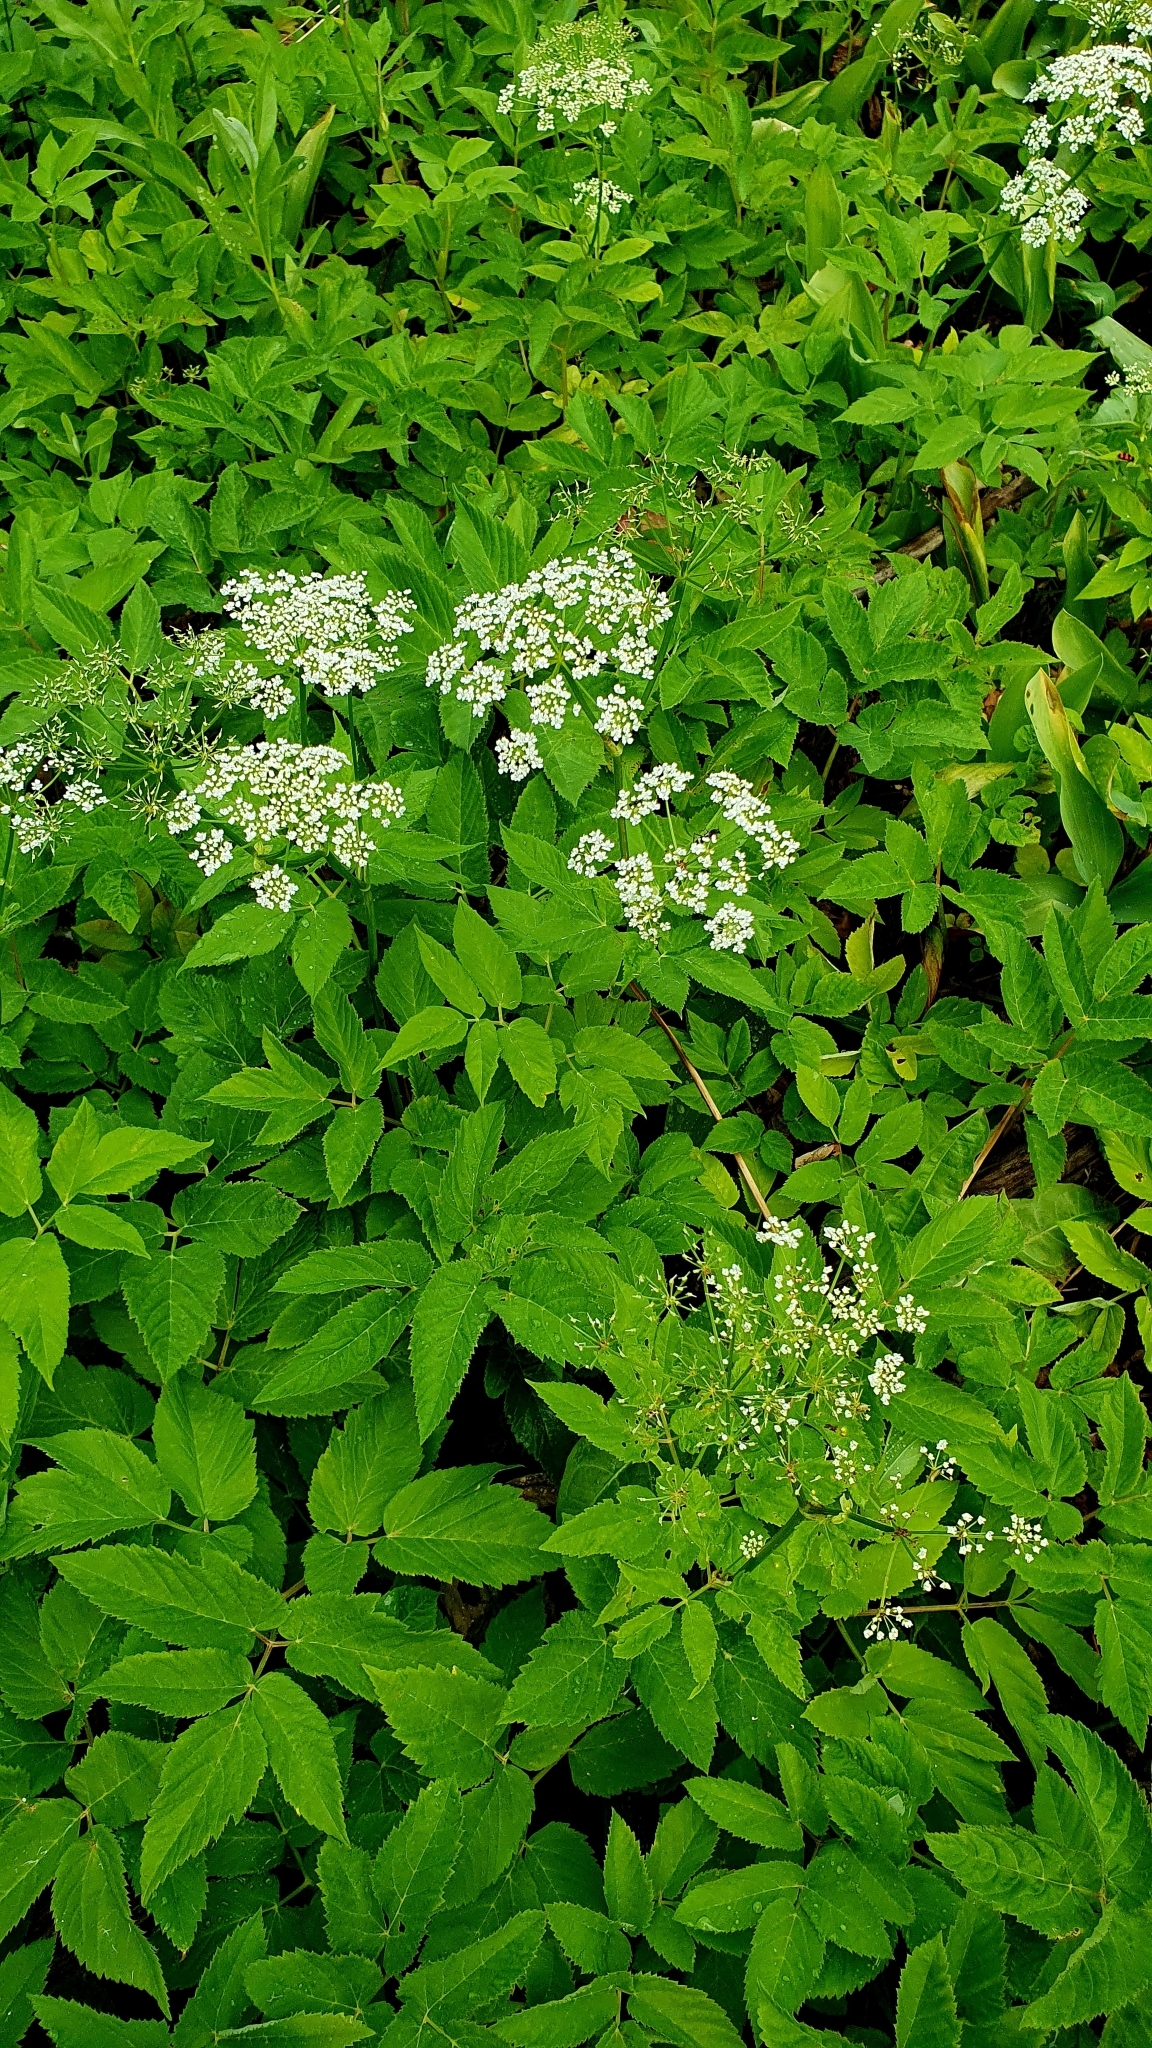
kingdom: Plantae
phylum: Tracheophyta
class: Magnoliopsida
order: Apiales
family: Apiaceae
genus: Aegopodium
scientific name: Aegopodium podagraria
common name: Ground-elder
